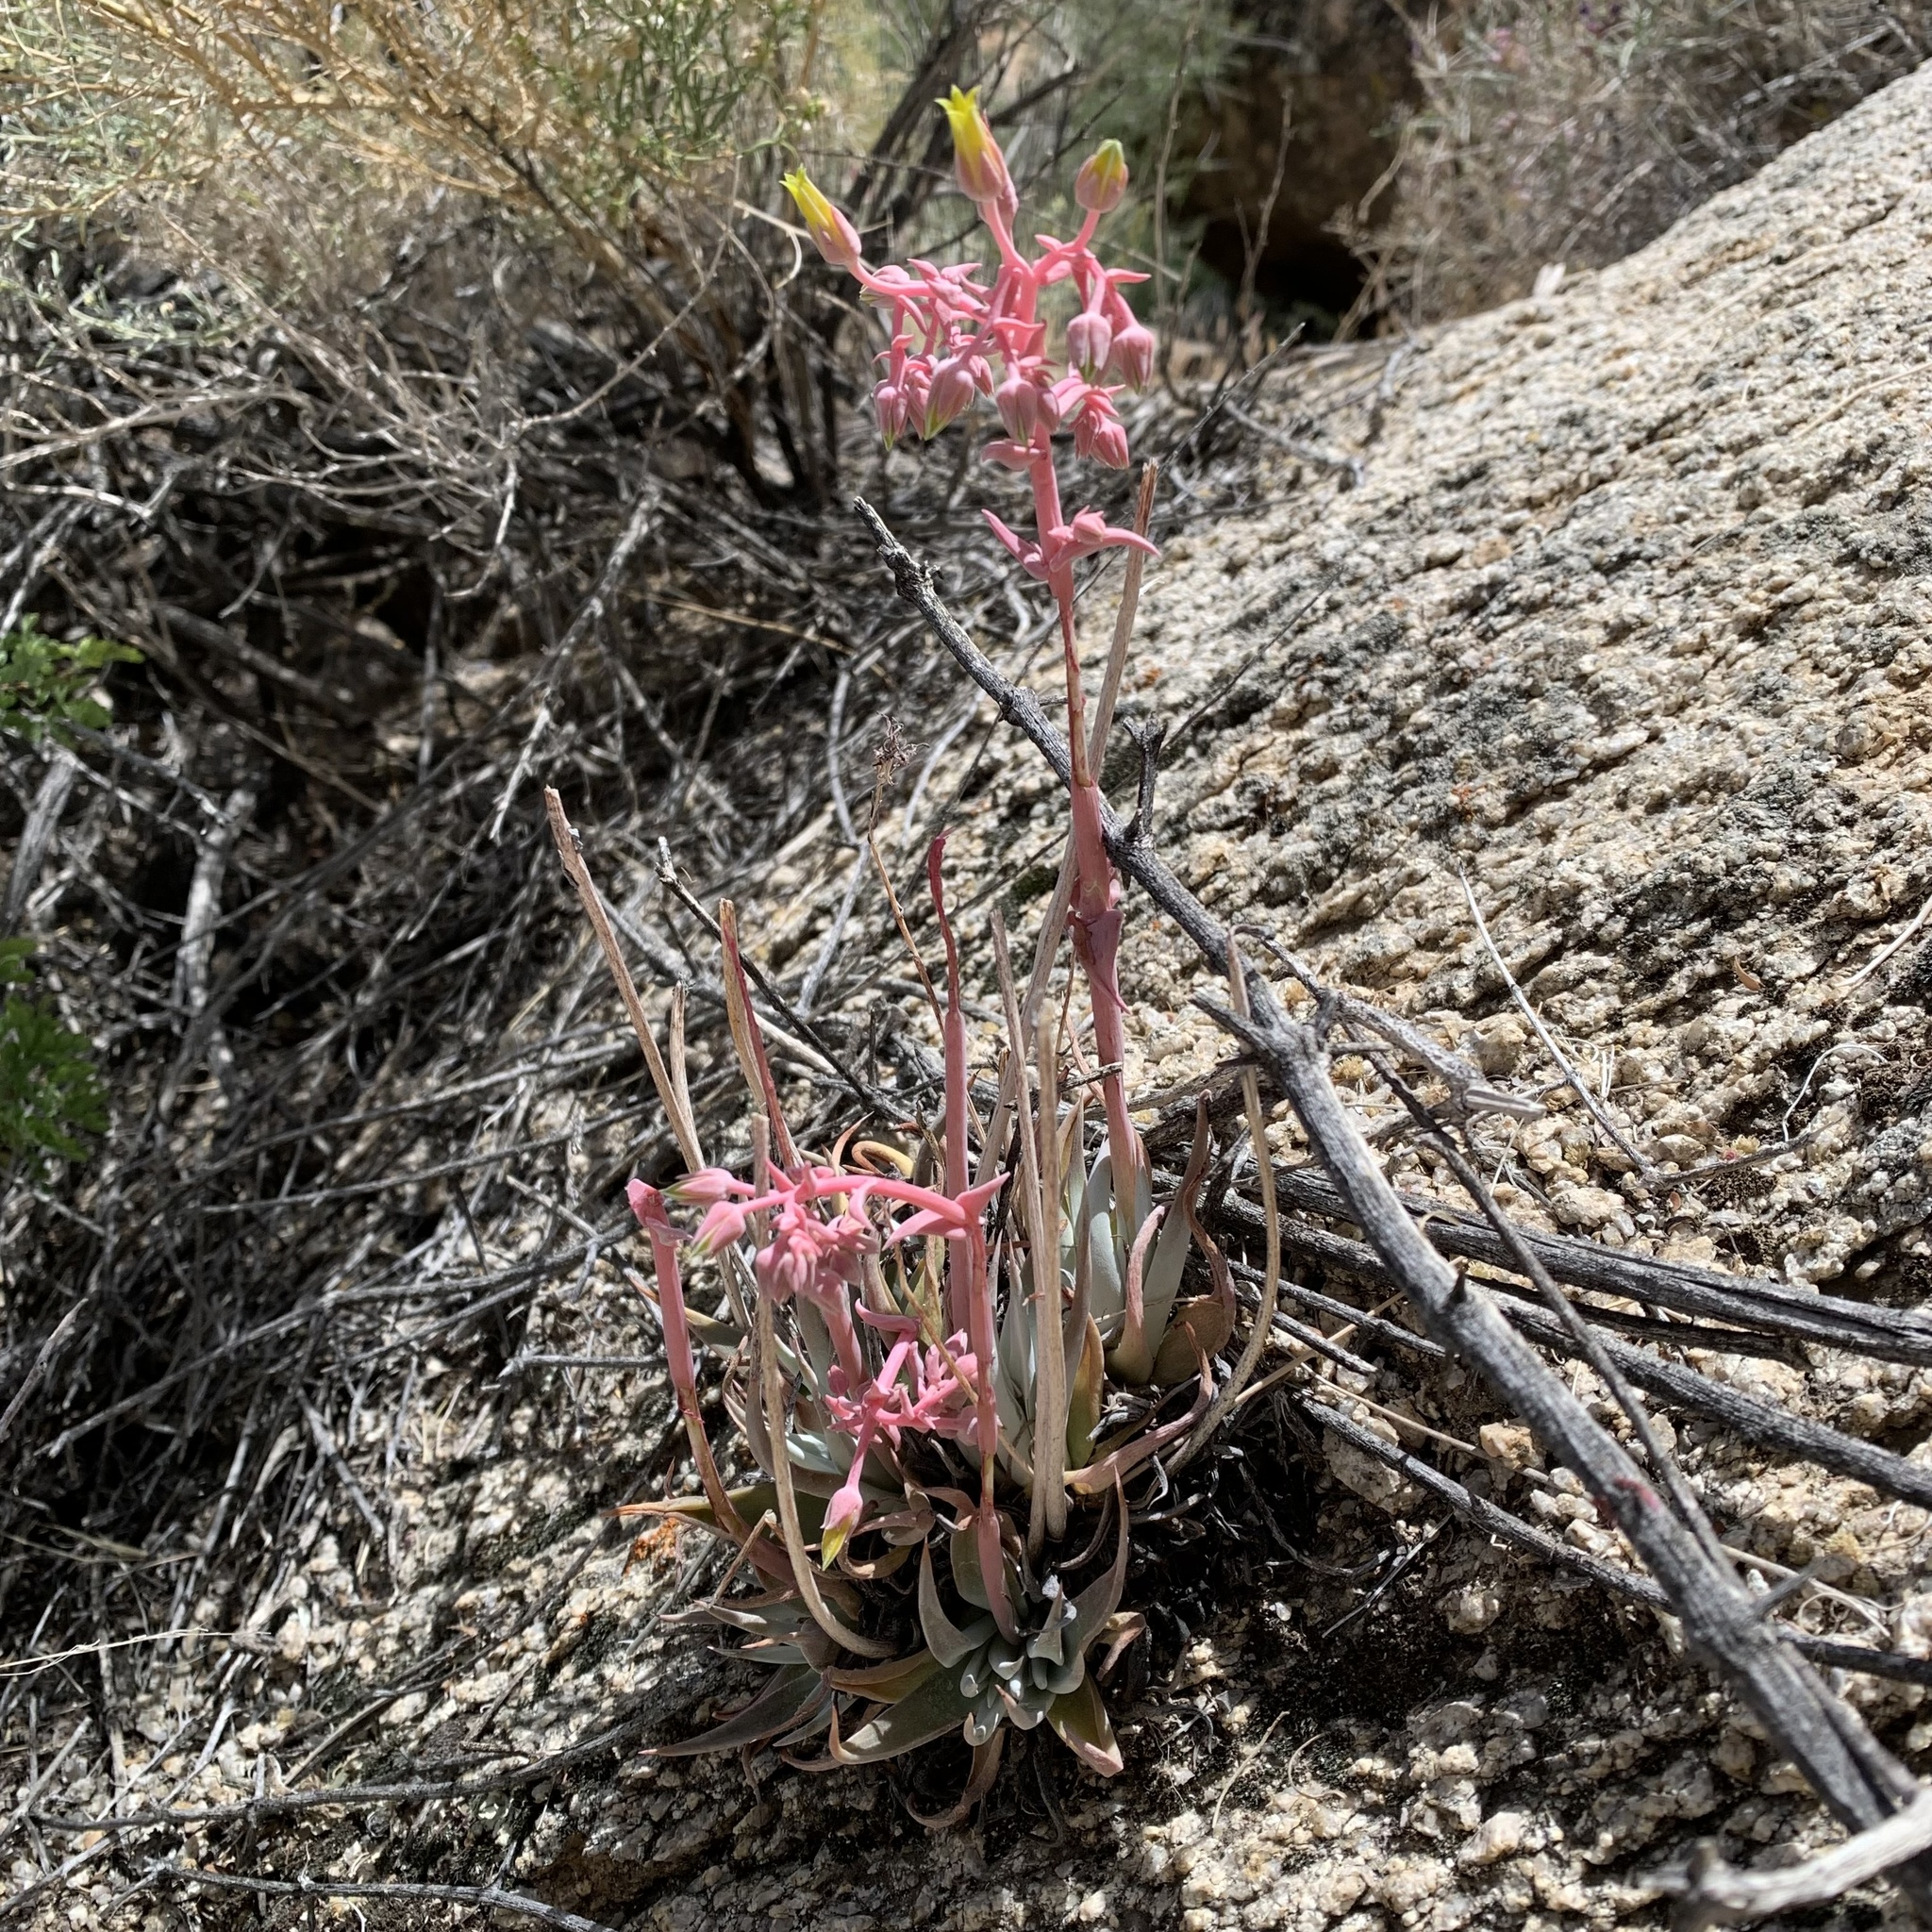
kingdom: Plantae
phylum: Tracheophyta
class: Magnoliopsida
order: Saxifragales
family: Crassulaceae
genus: Dudleya
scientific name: Dudleya saxosa
